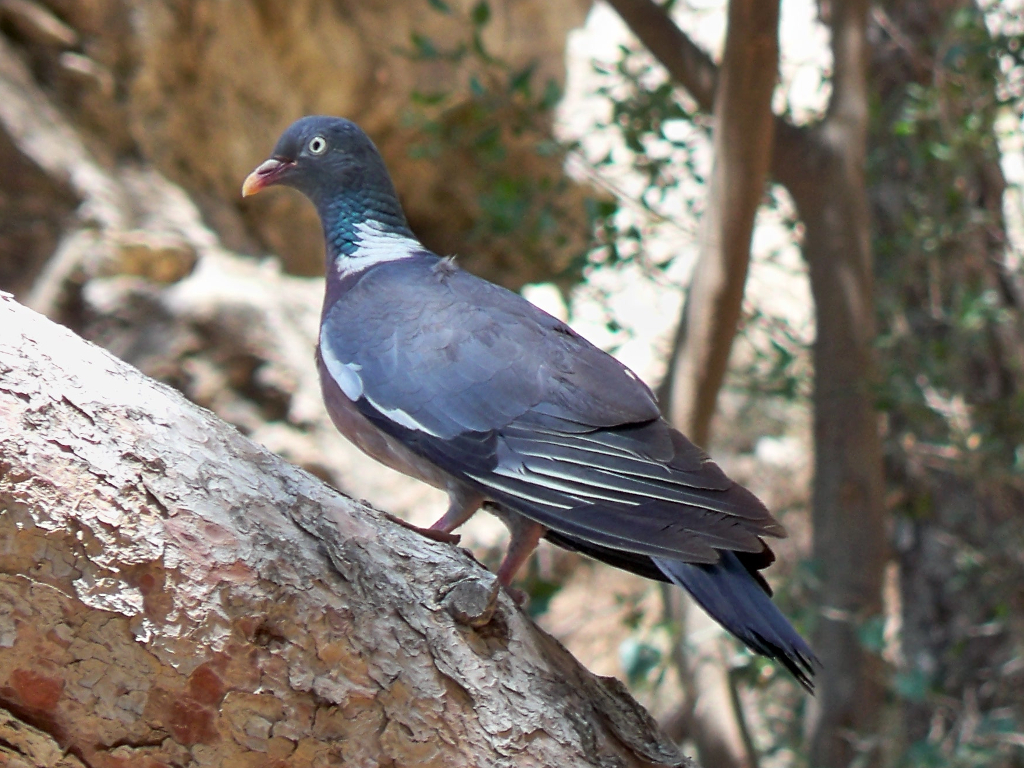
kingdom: Animalia
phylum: Chordata
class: Aves
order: Columbiformes
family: Columbidae
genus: Columba
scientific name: Columba palumbus
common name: Common wood pigeon
